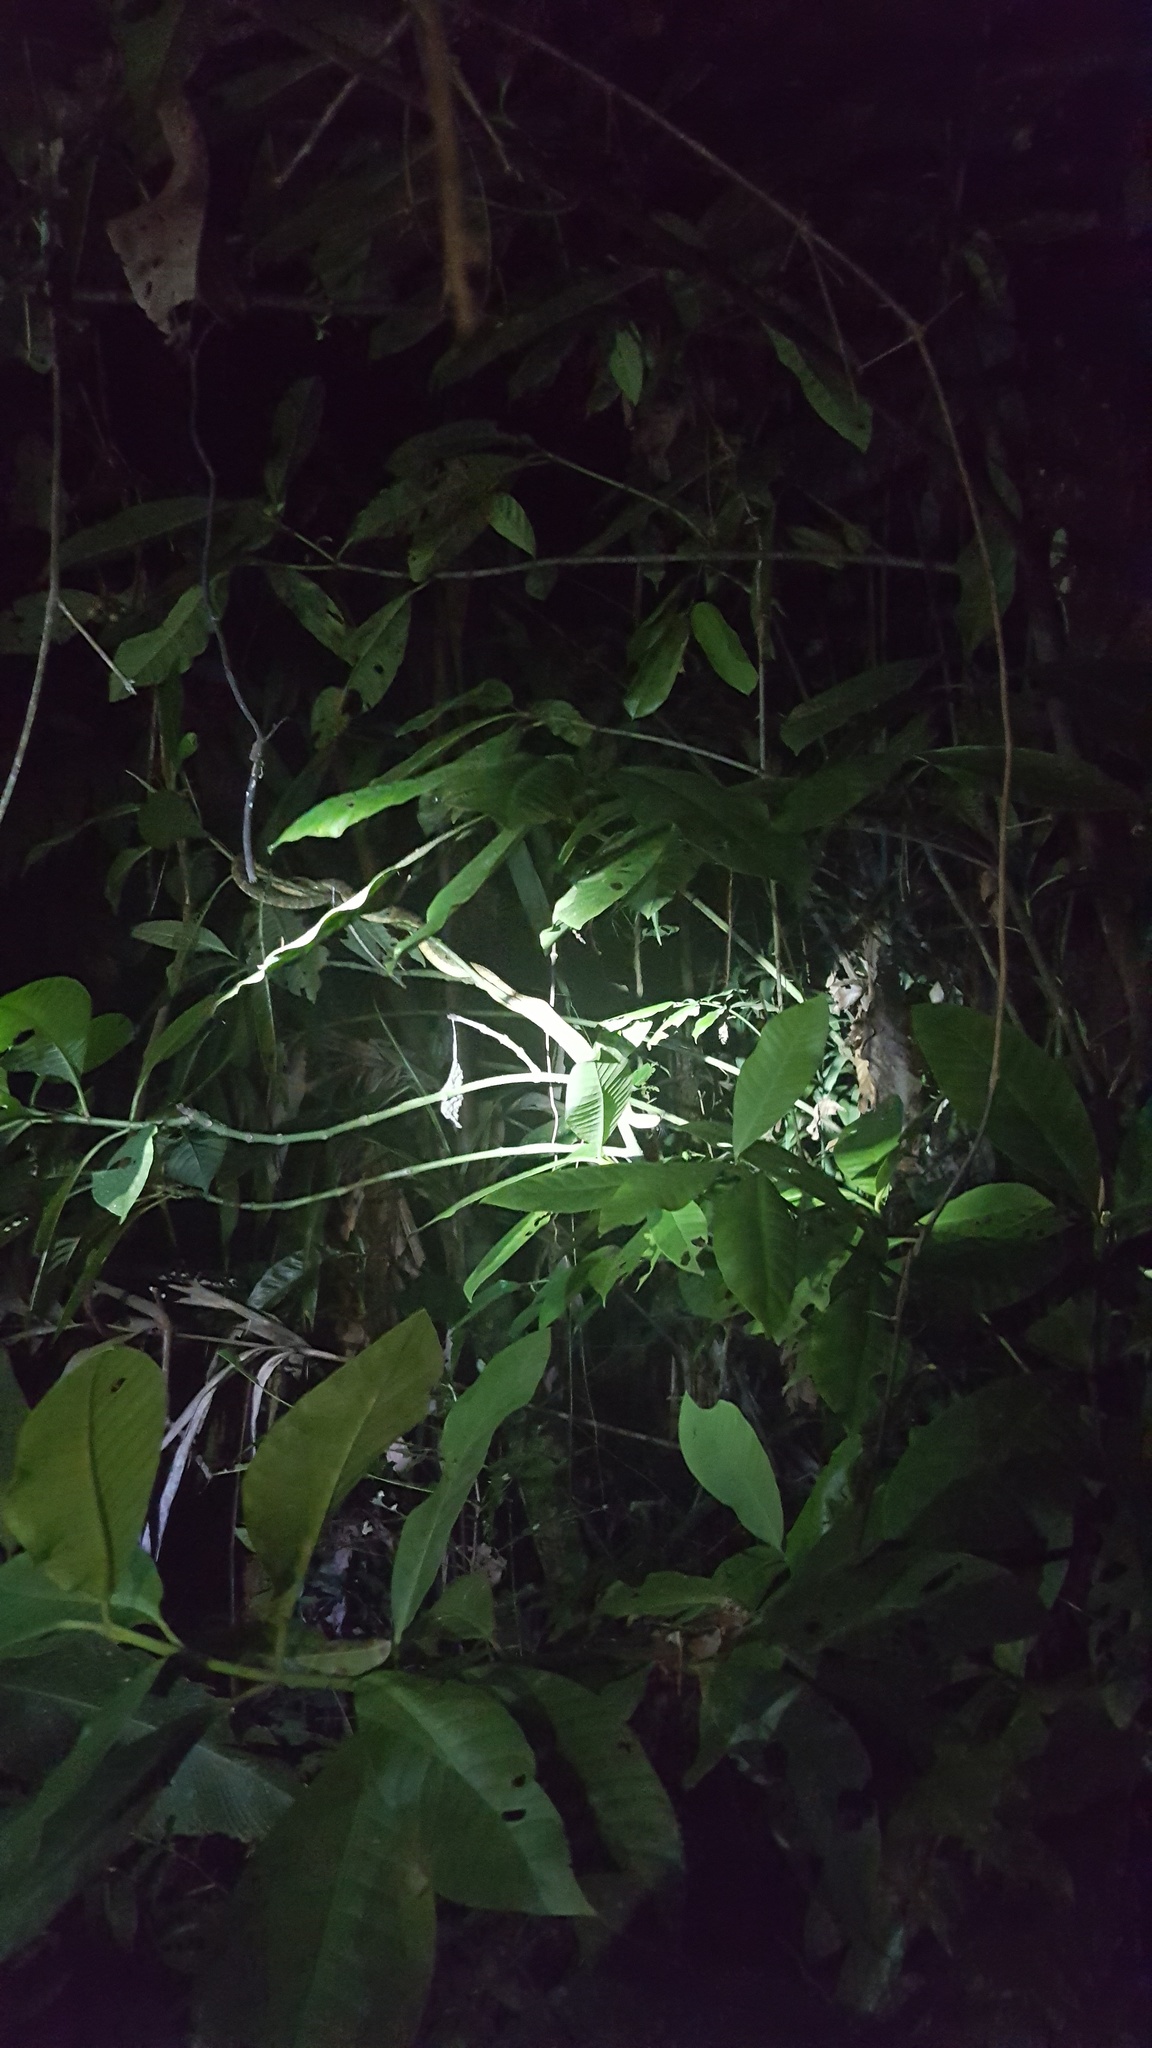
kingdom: Animalia
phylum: Chordata
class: Squamata
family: Viperidae
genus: Bothrops
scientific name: Bothrops atrox
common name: Common lancehead
